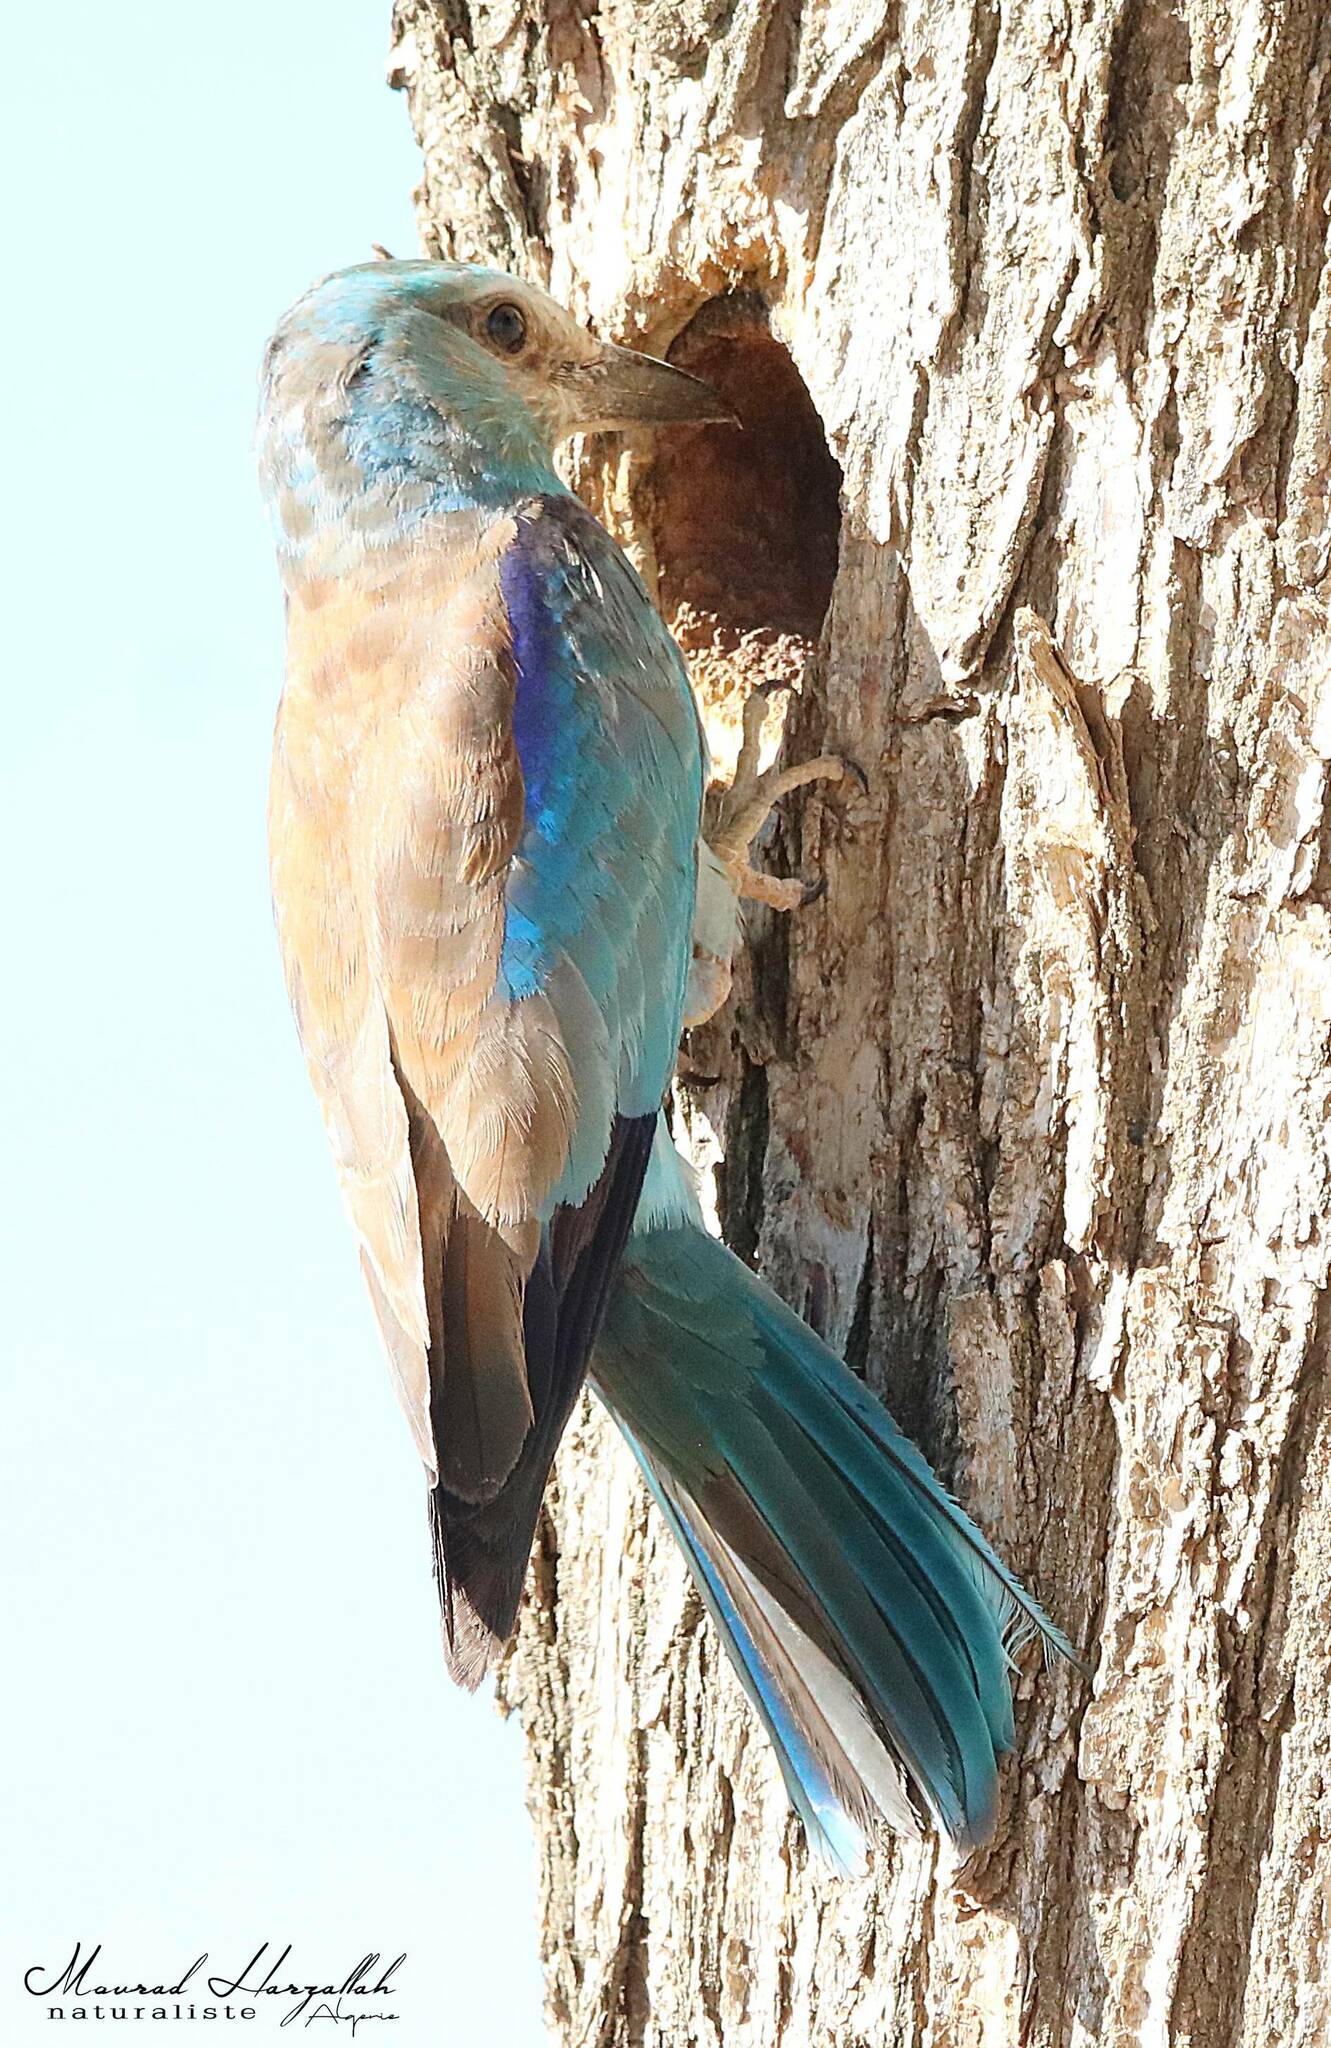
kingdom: Animalia
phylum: Chordata
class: Aves
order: Coraciiformes
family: Coraciidae
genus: Coracias
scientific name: Coracias garrulus
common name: European roller
